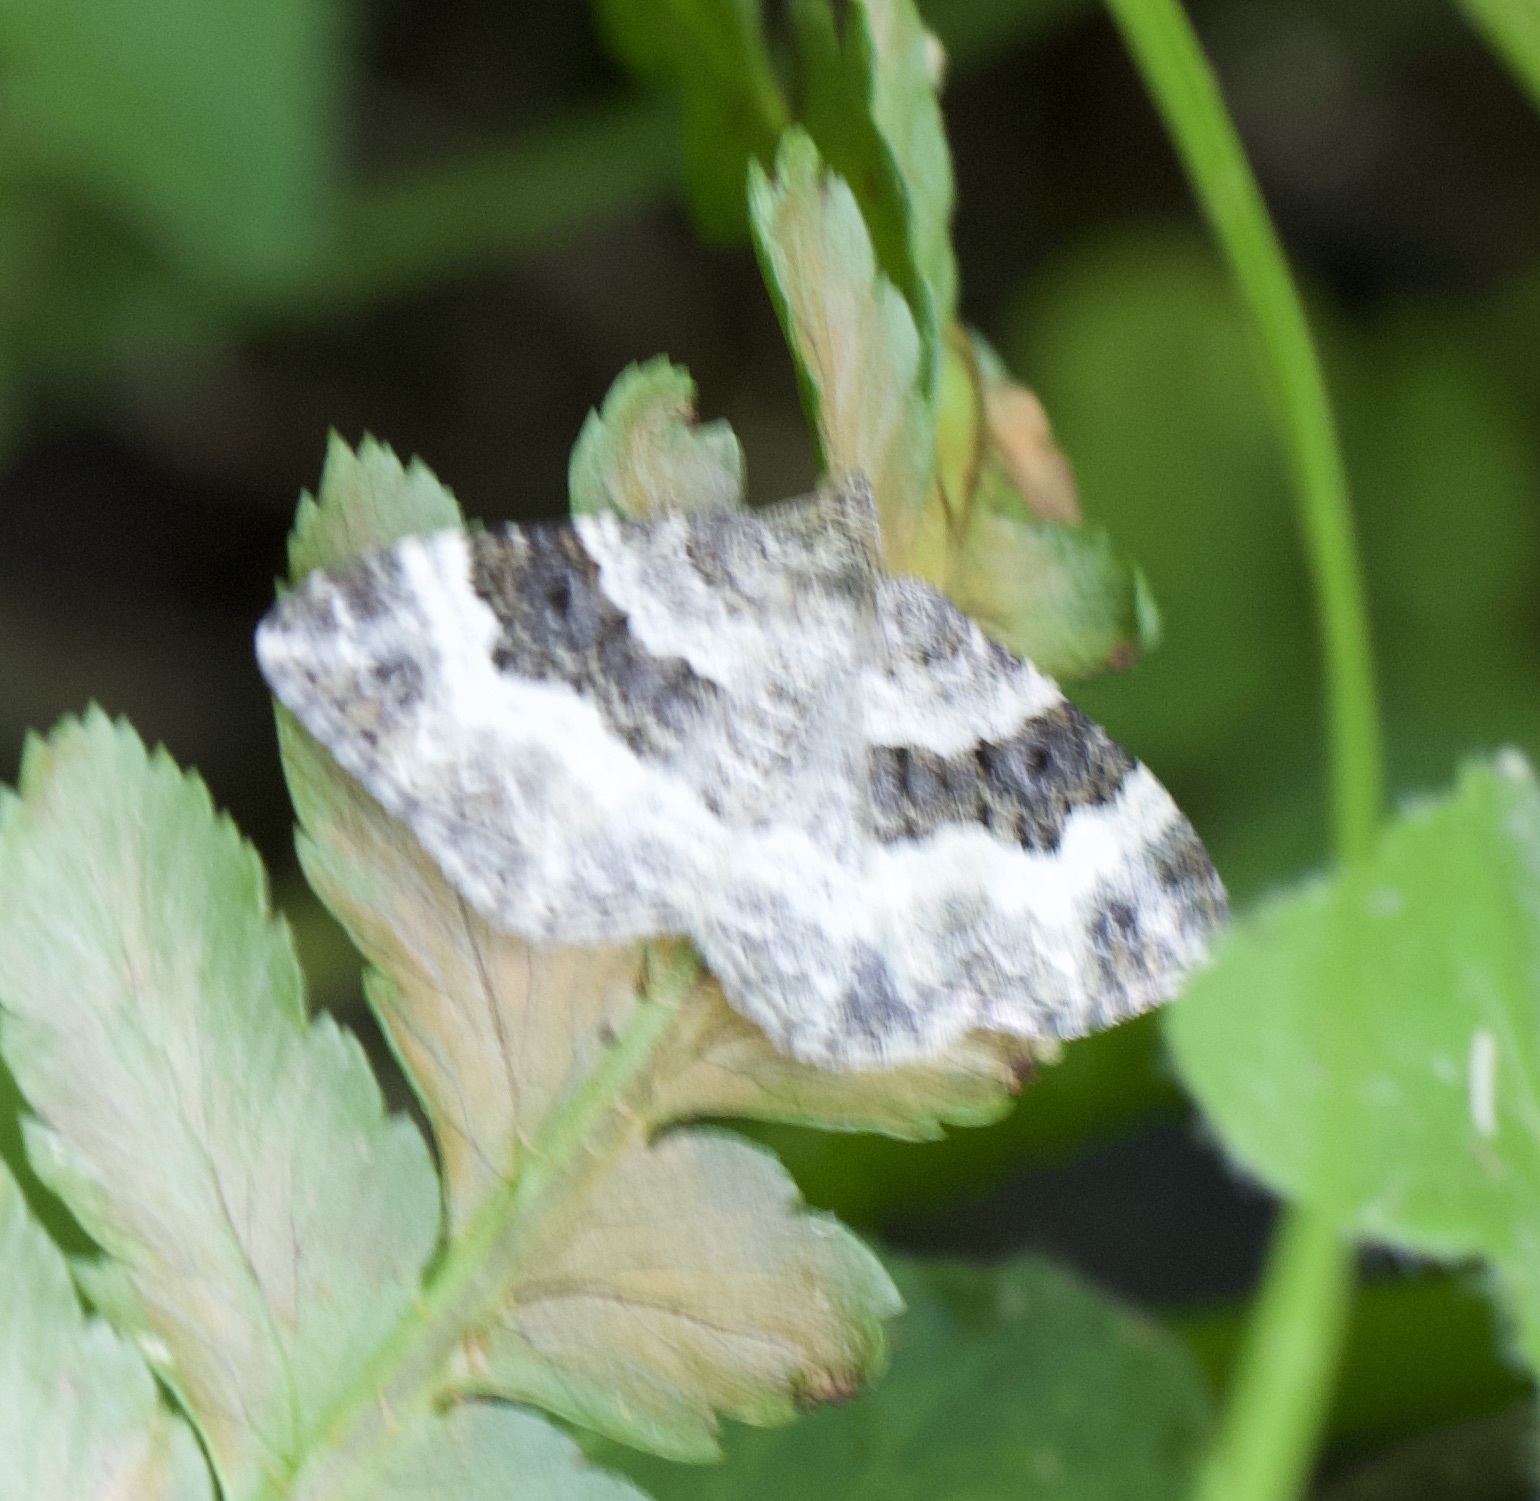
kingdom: Animalia
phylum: Arthropoda
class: Insecta
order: Lepidoptera
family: Geometridae
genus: Epirrhoe
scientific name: Epirrhoe alternata
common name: Common carpet
